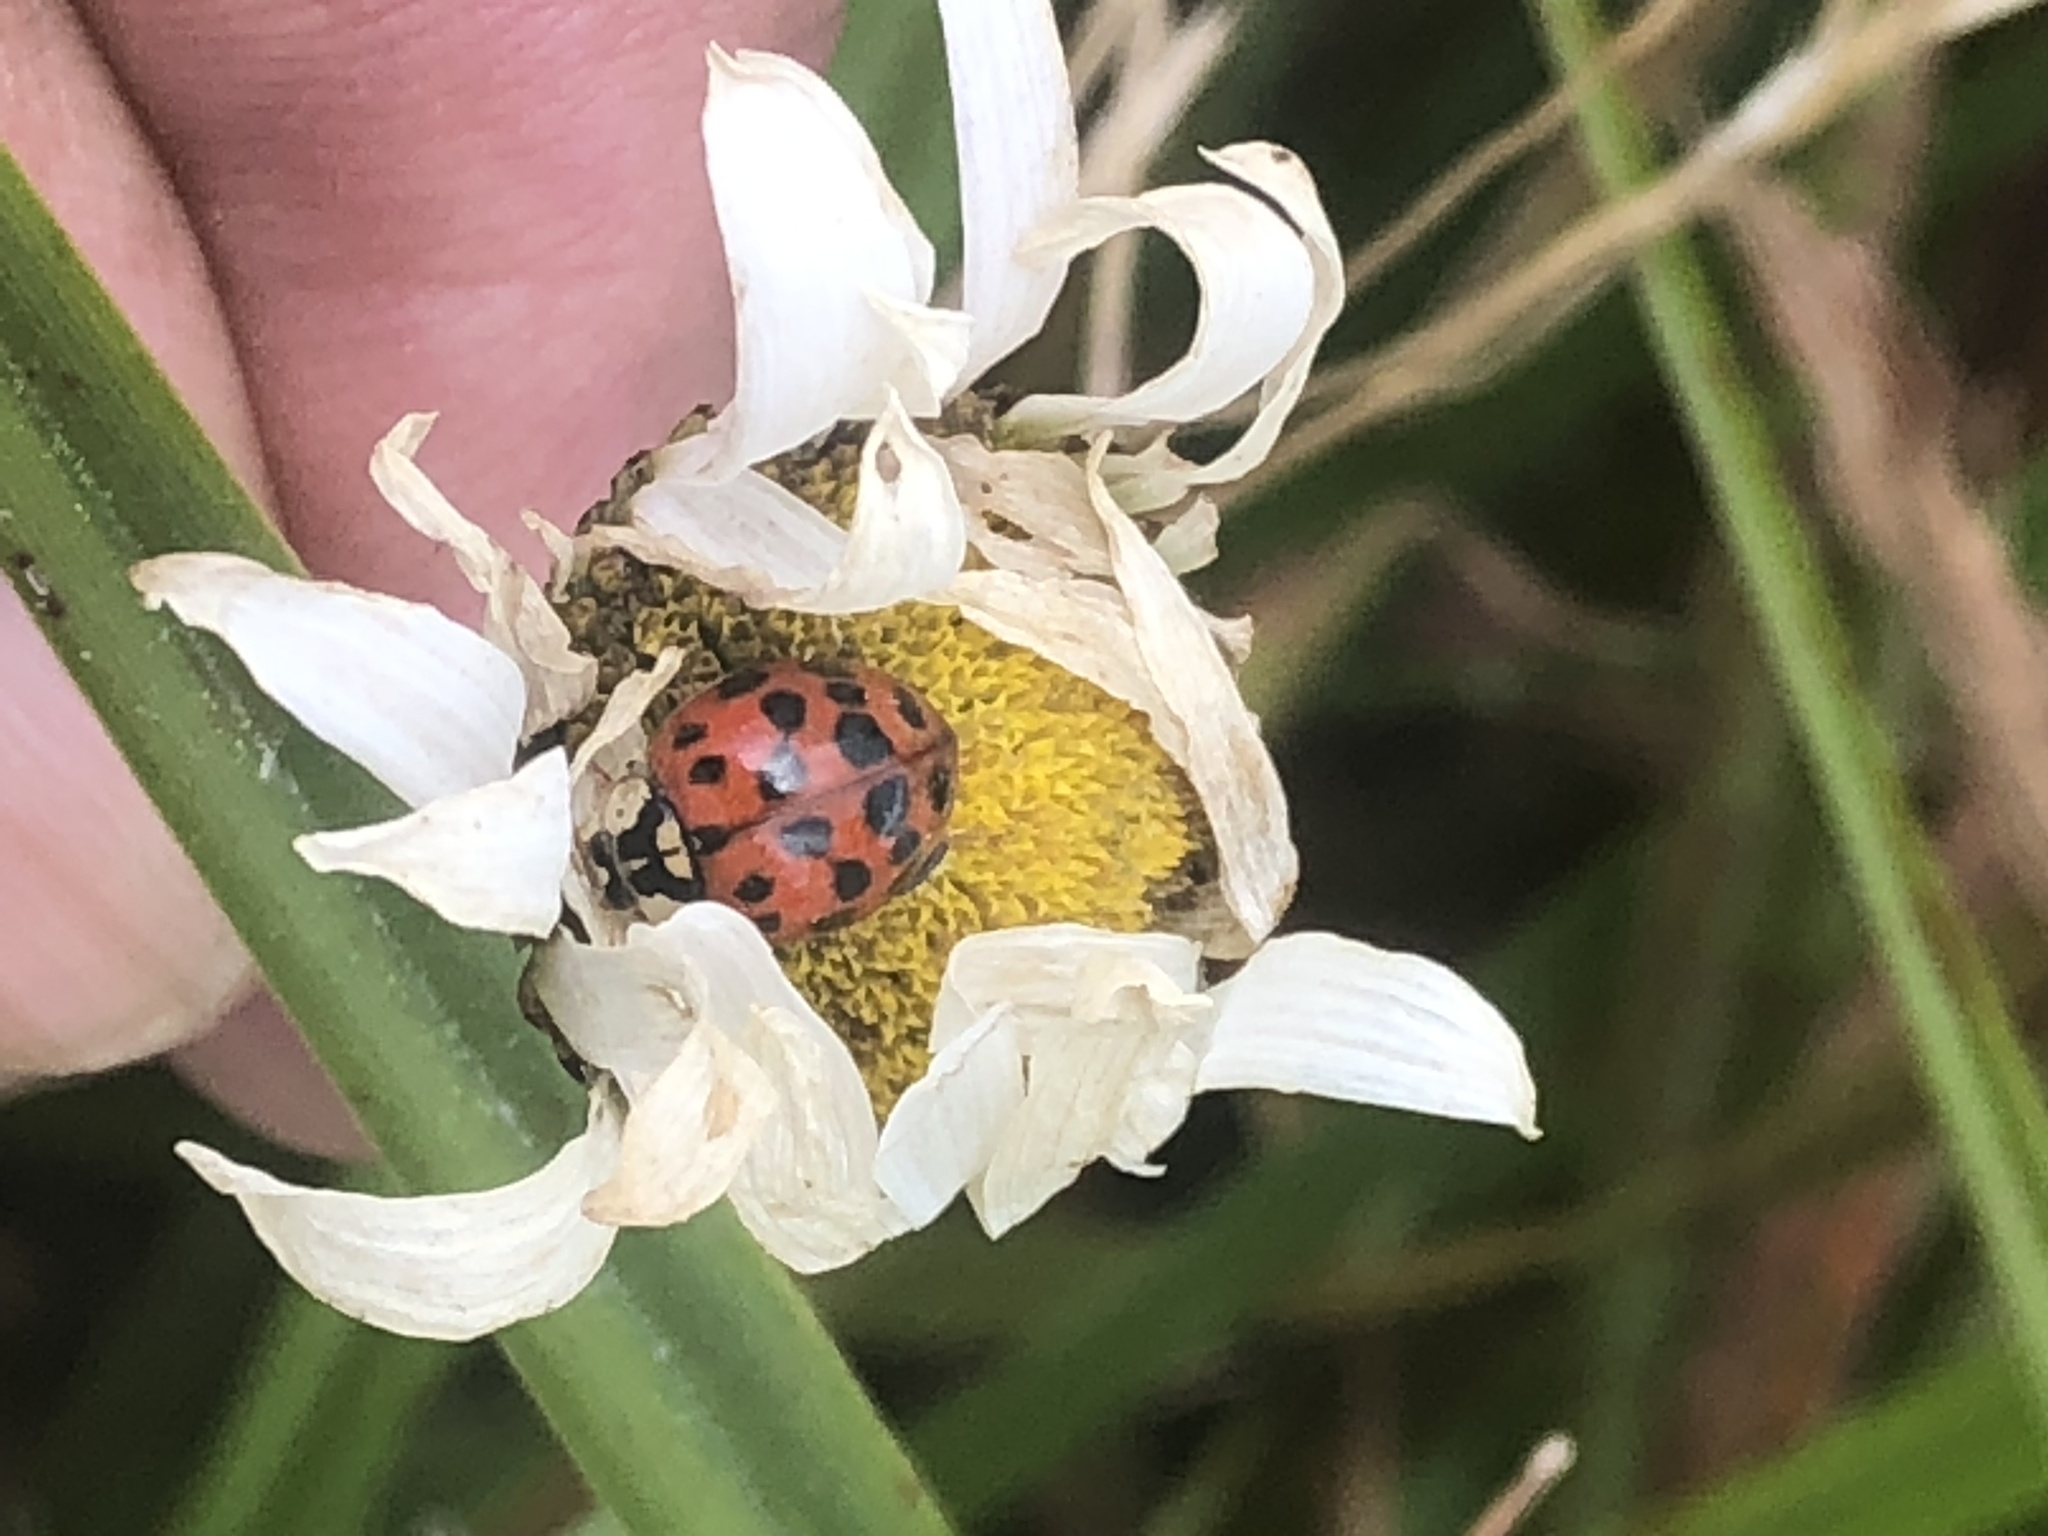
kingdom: Animalia
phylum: Arthropoda
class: Insecta
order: Coleoptera
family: Coccinellidae
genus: Harmonia
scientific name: Harmonia axyridis
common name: Harlequin ladybird
